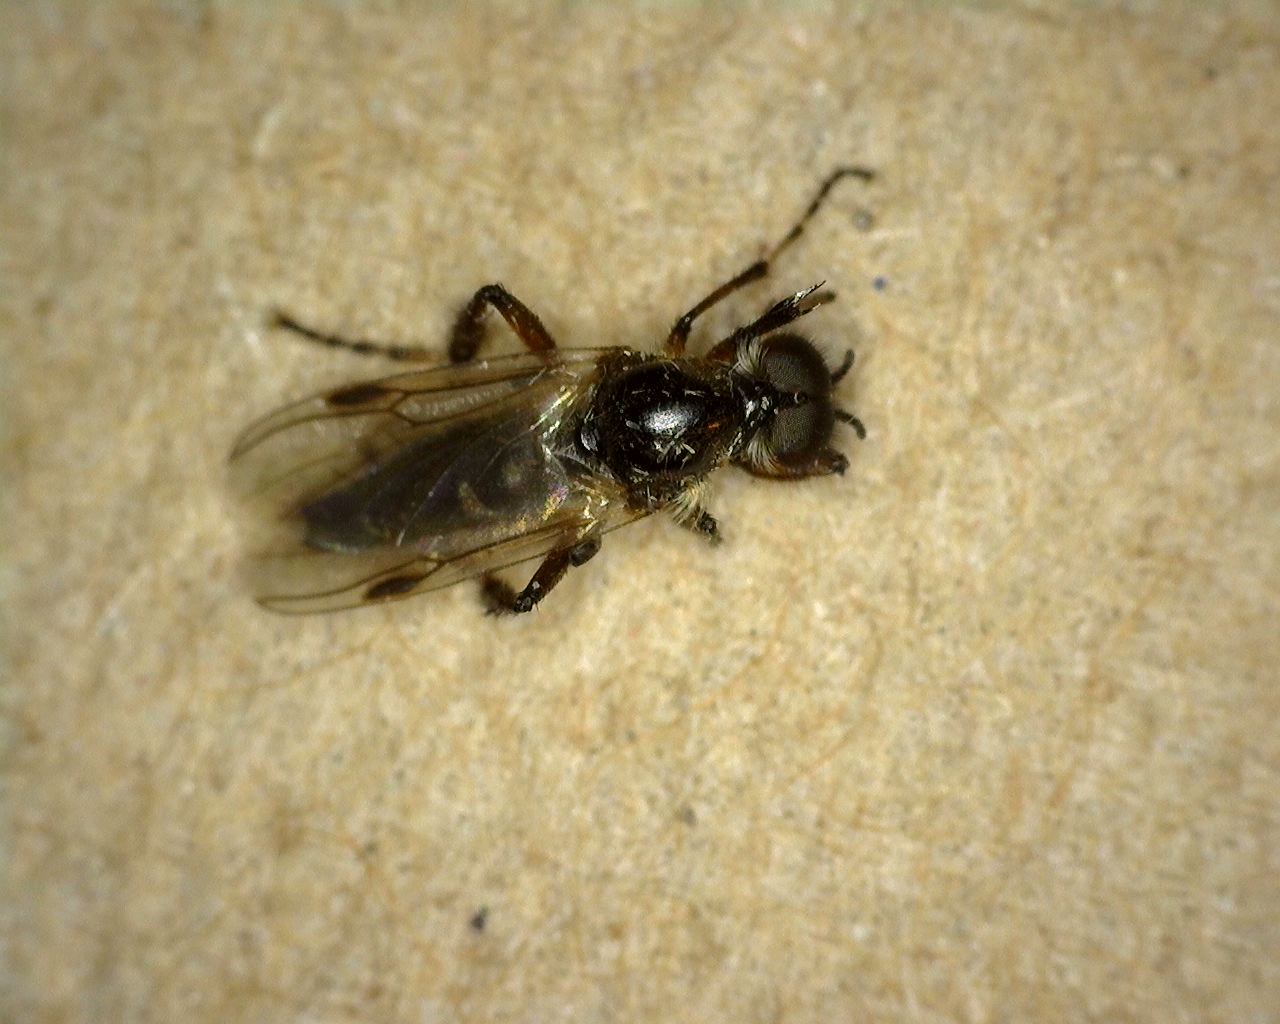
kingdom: Animalia
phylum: Arthropoda
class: Insecta
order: Diptera
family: Bibionidae
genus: Bibio
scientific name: Bibio articulatus
